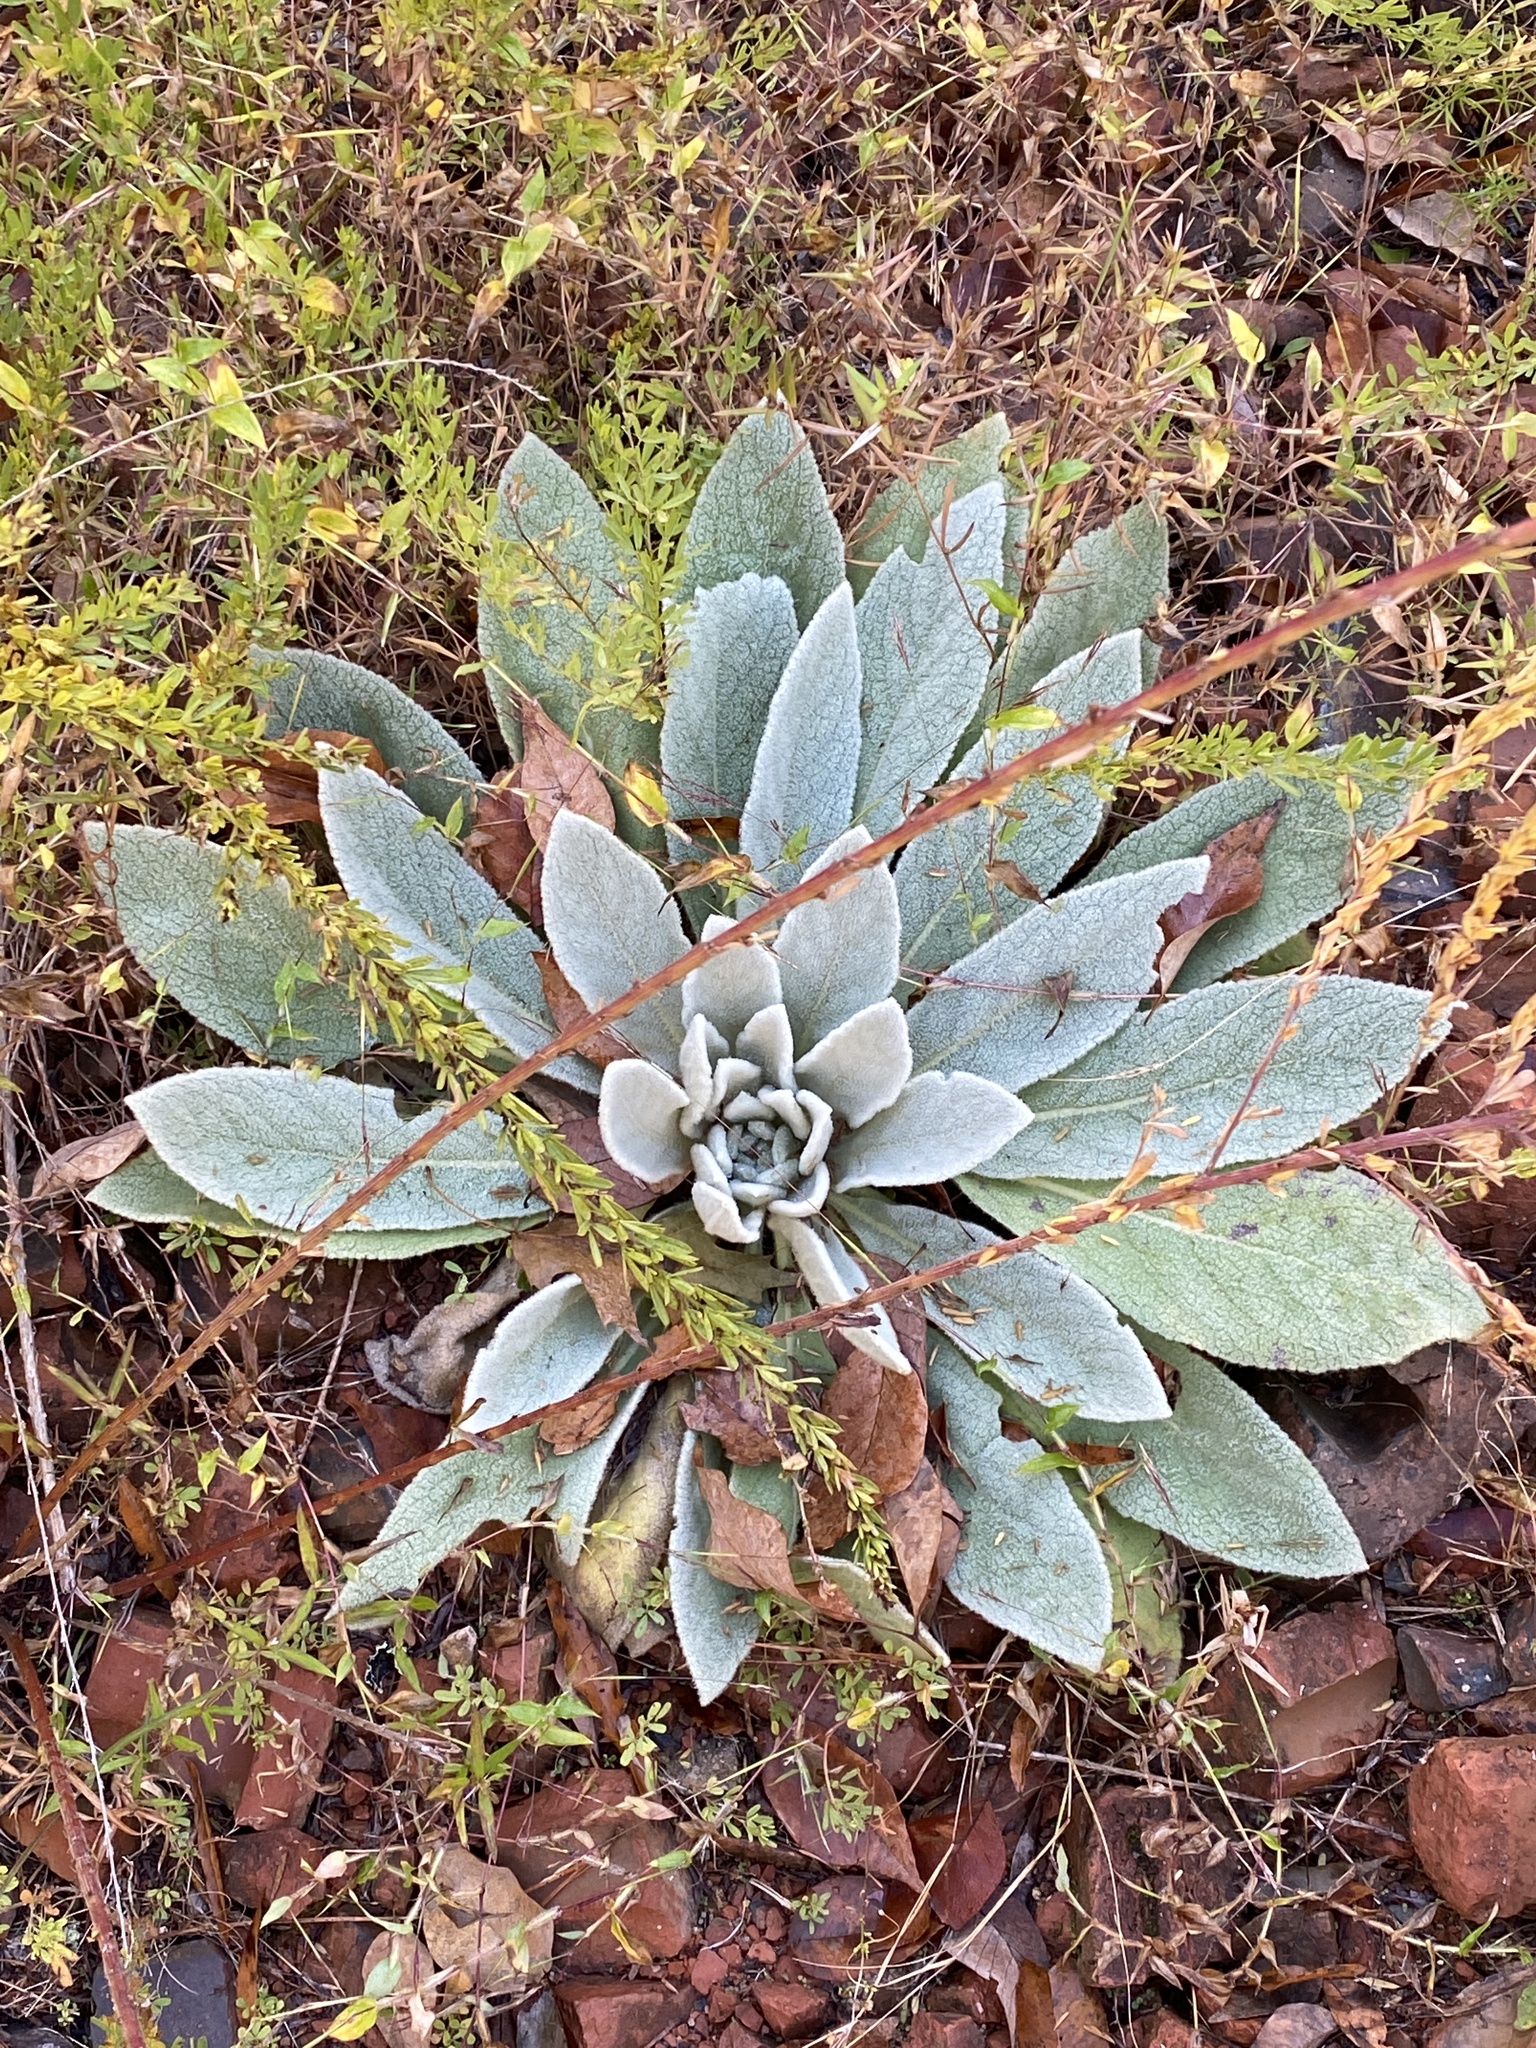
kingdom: Plantae
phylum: Tracheophyta
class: Magnoliopsida
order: Lamiales
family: Scrophulariaceae
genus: Verbascum
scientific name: Verbascum thapsus
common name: Common mullein
